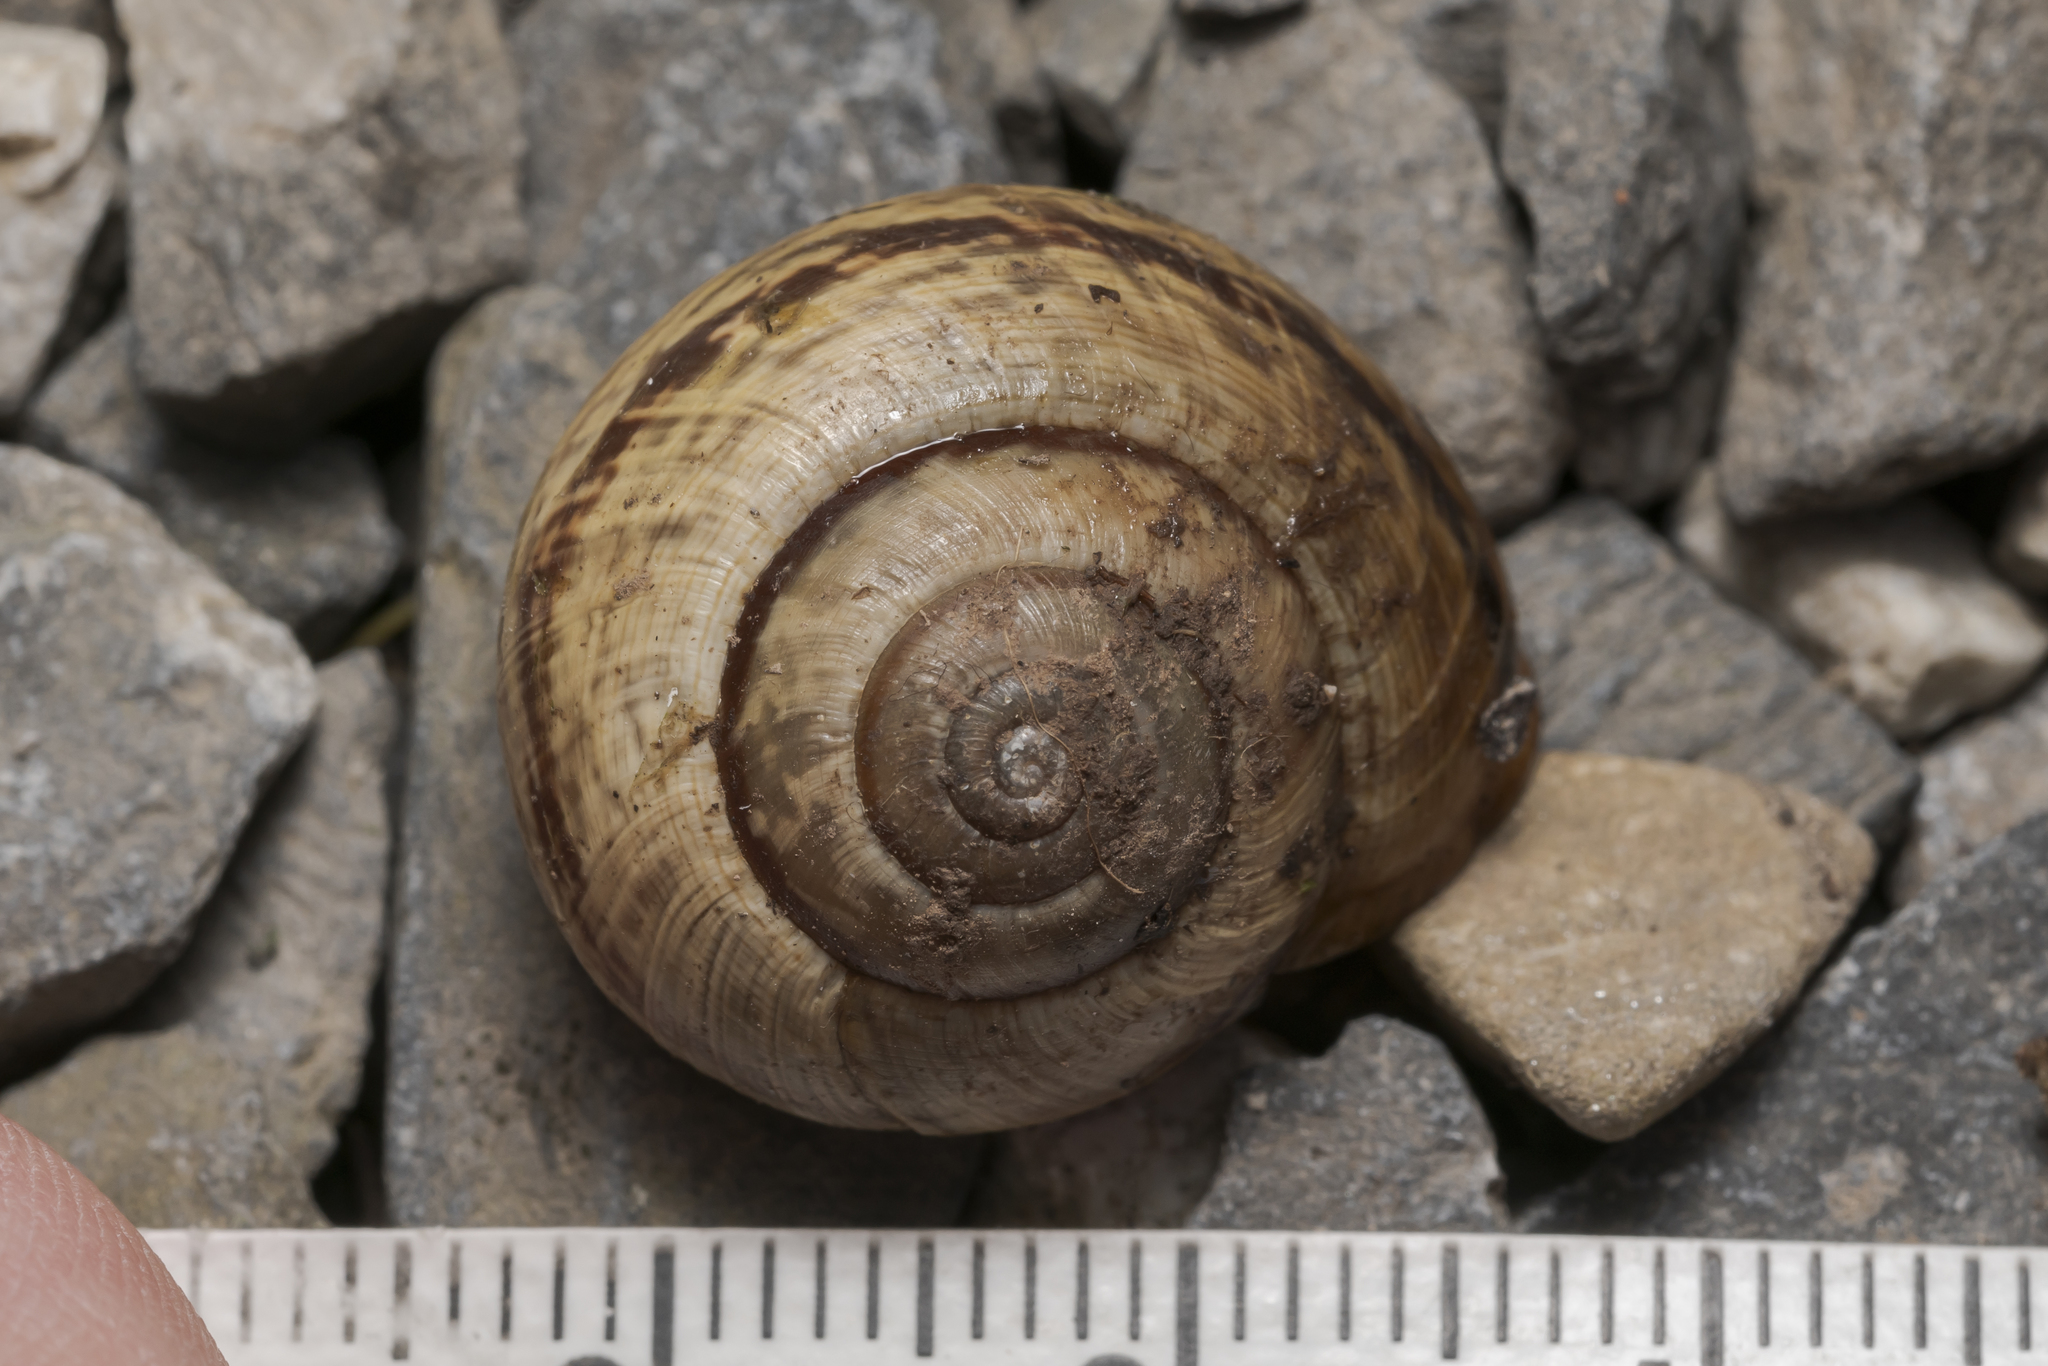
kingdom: Animalia
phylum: Mollusca
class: Gastropoda
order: Stylommatophora
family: Helicidae
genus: Arianta
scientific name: Arianta arbustorum
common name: Copse snail
